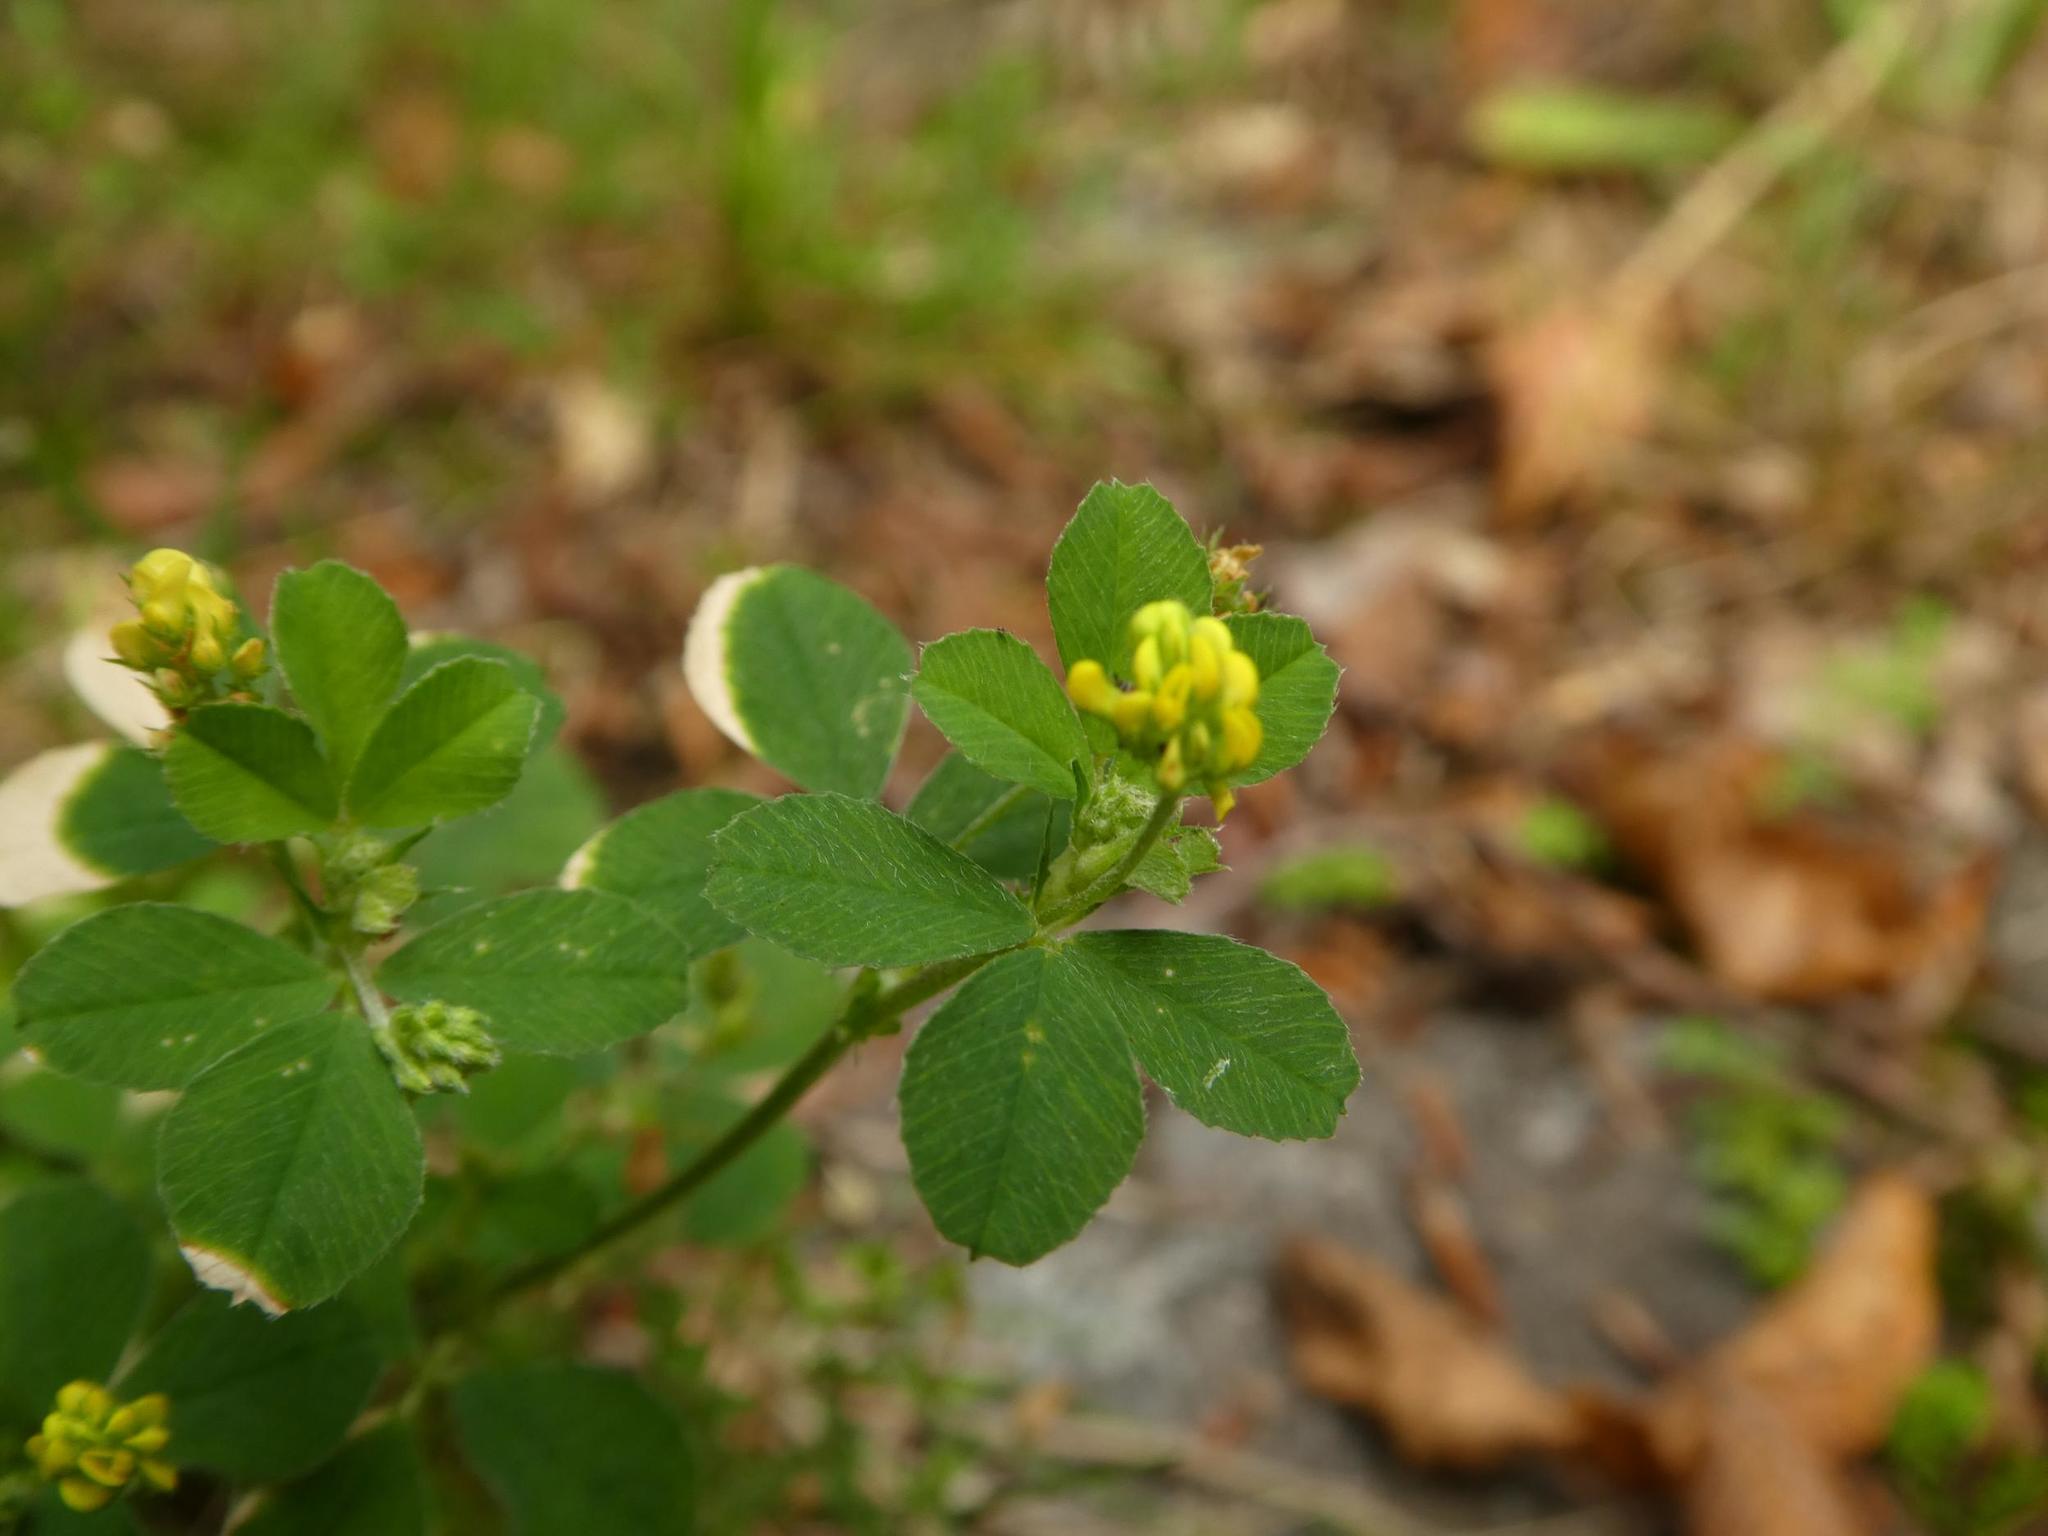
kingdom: Plantae
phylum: Tracheophyta
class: Magnoliopsida
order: Fabales
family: Fabaceae
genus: Medicago
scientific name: Medicago lupulina
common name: Black medick
